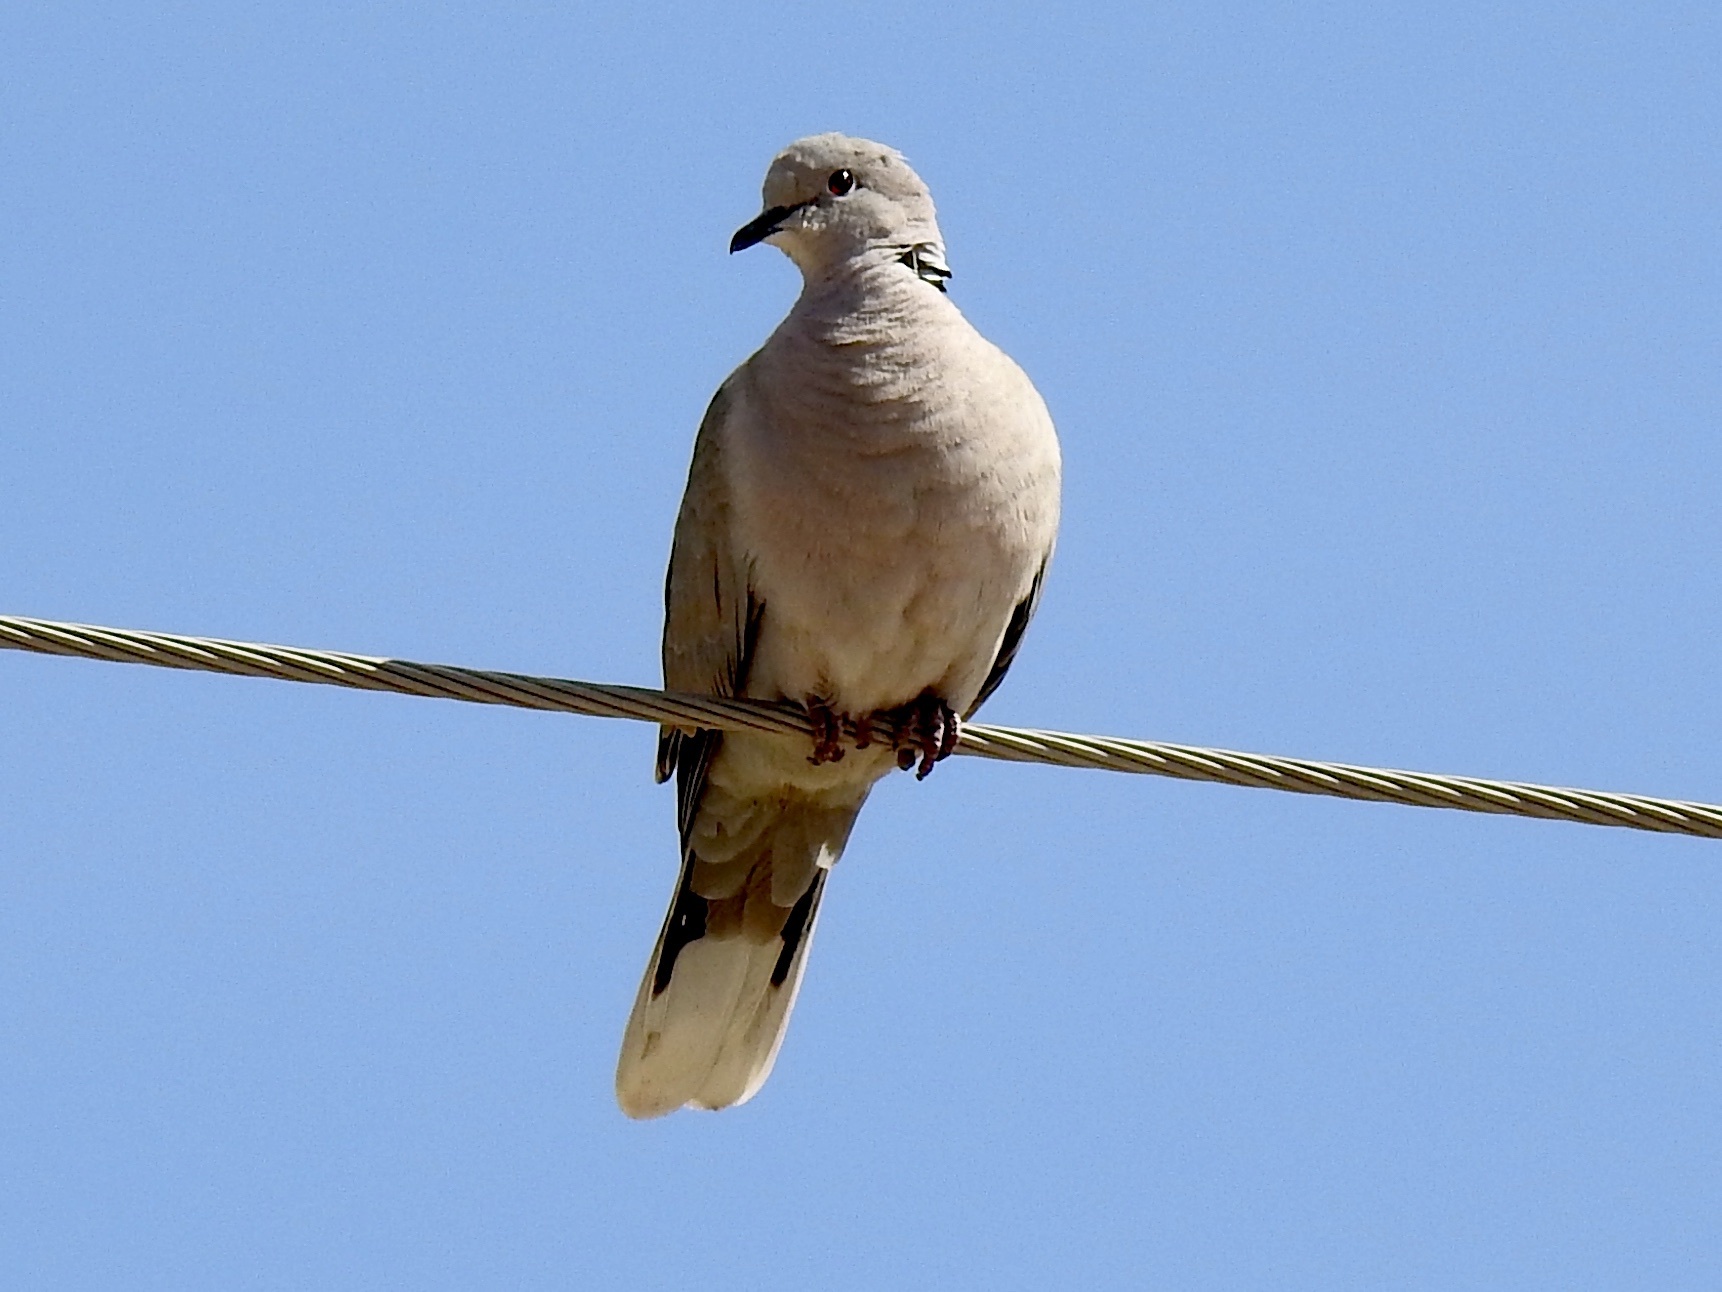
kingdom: Animalia
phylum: Chordata
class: Aves
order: Columbiformes
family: Columbidae
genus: Streptopelia
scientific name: Streptopelia decaocto
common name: Eurasian collared dove
